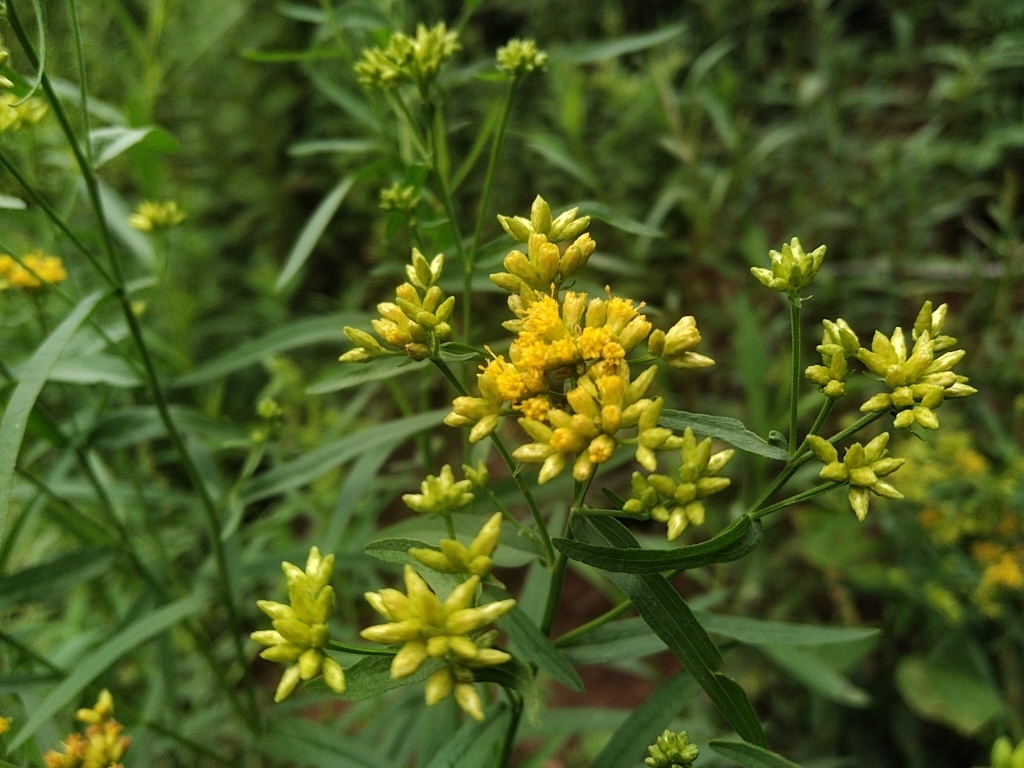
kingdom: Plantae
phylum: Tracheophyta
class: Magnoliopsida
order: Asterales
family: Asteraceae
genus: Euthamia
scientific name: Euthamia graminifolia
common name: Common goldentop
